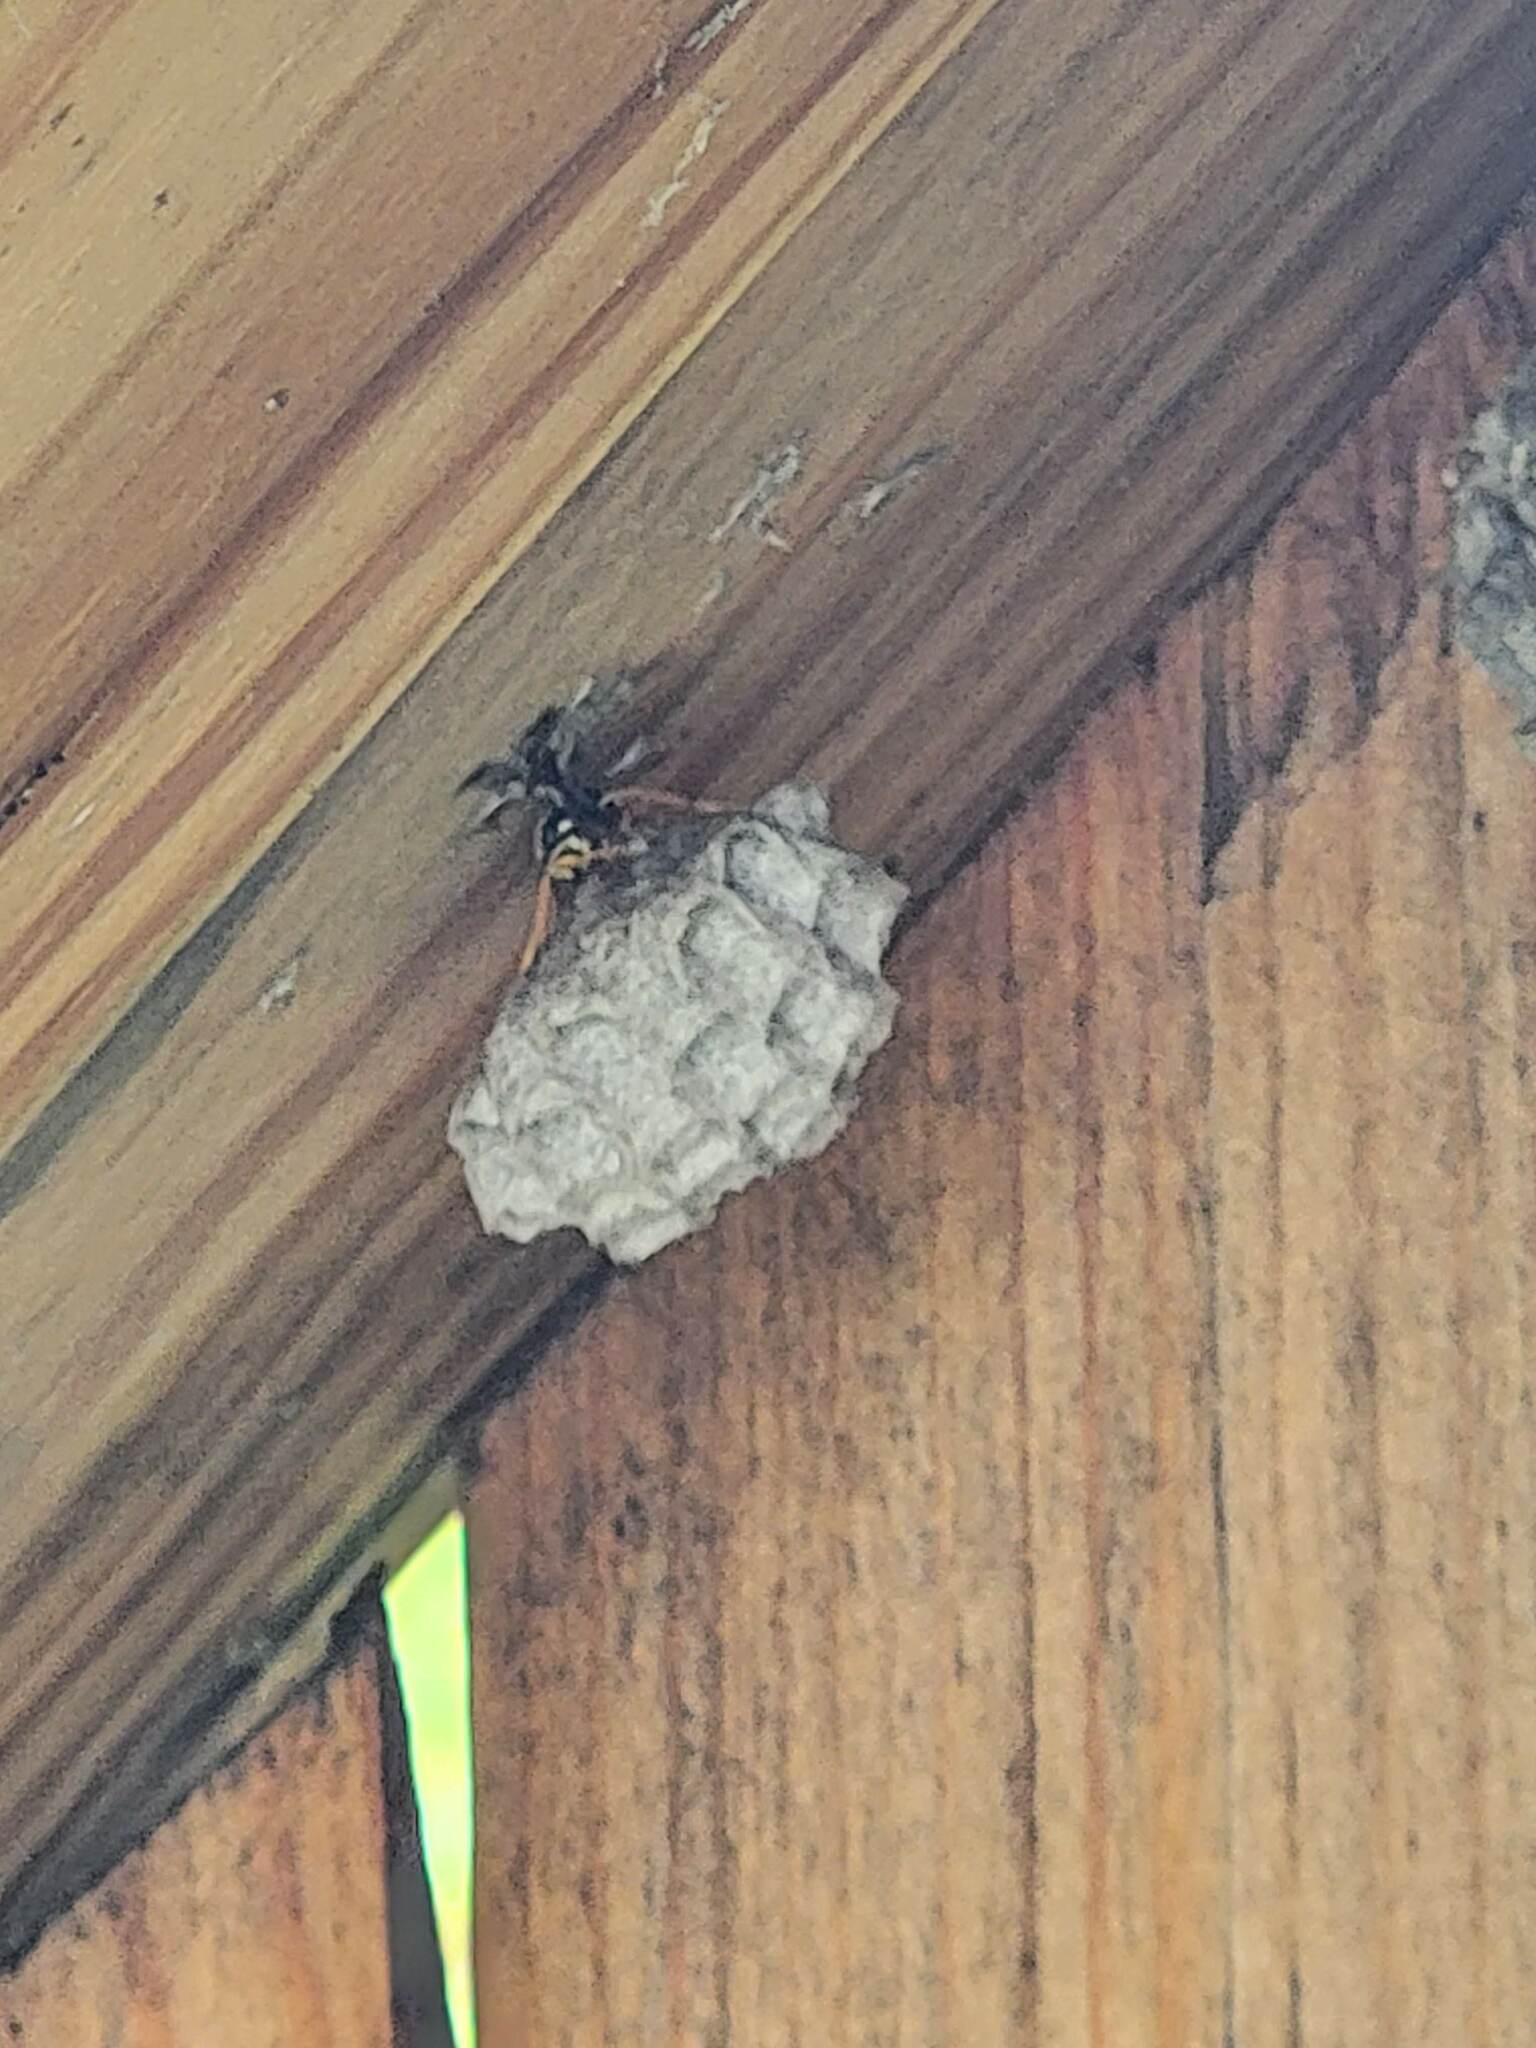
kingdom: Animalia
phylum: Arthropoda
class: Insecta
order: Hymenoptera
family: Eumenidae
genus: Polistes
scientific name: Polistes dominula
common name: Paper wasp
